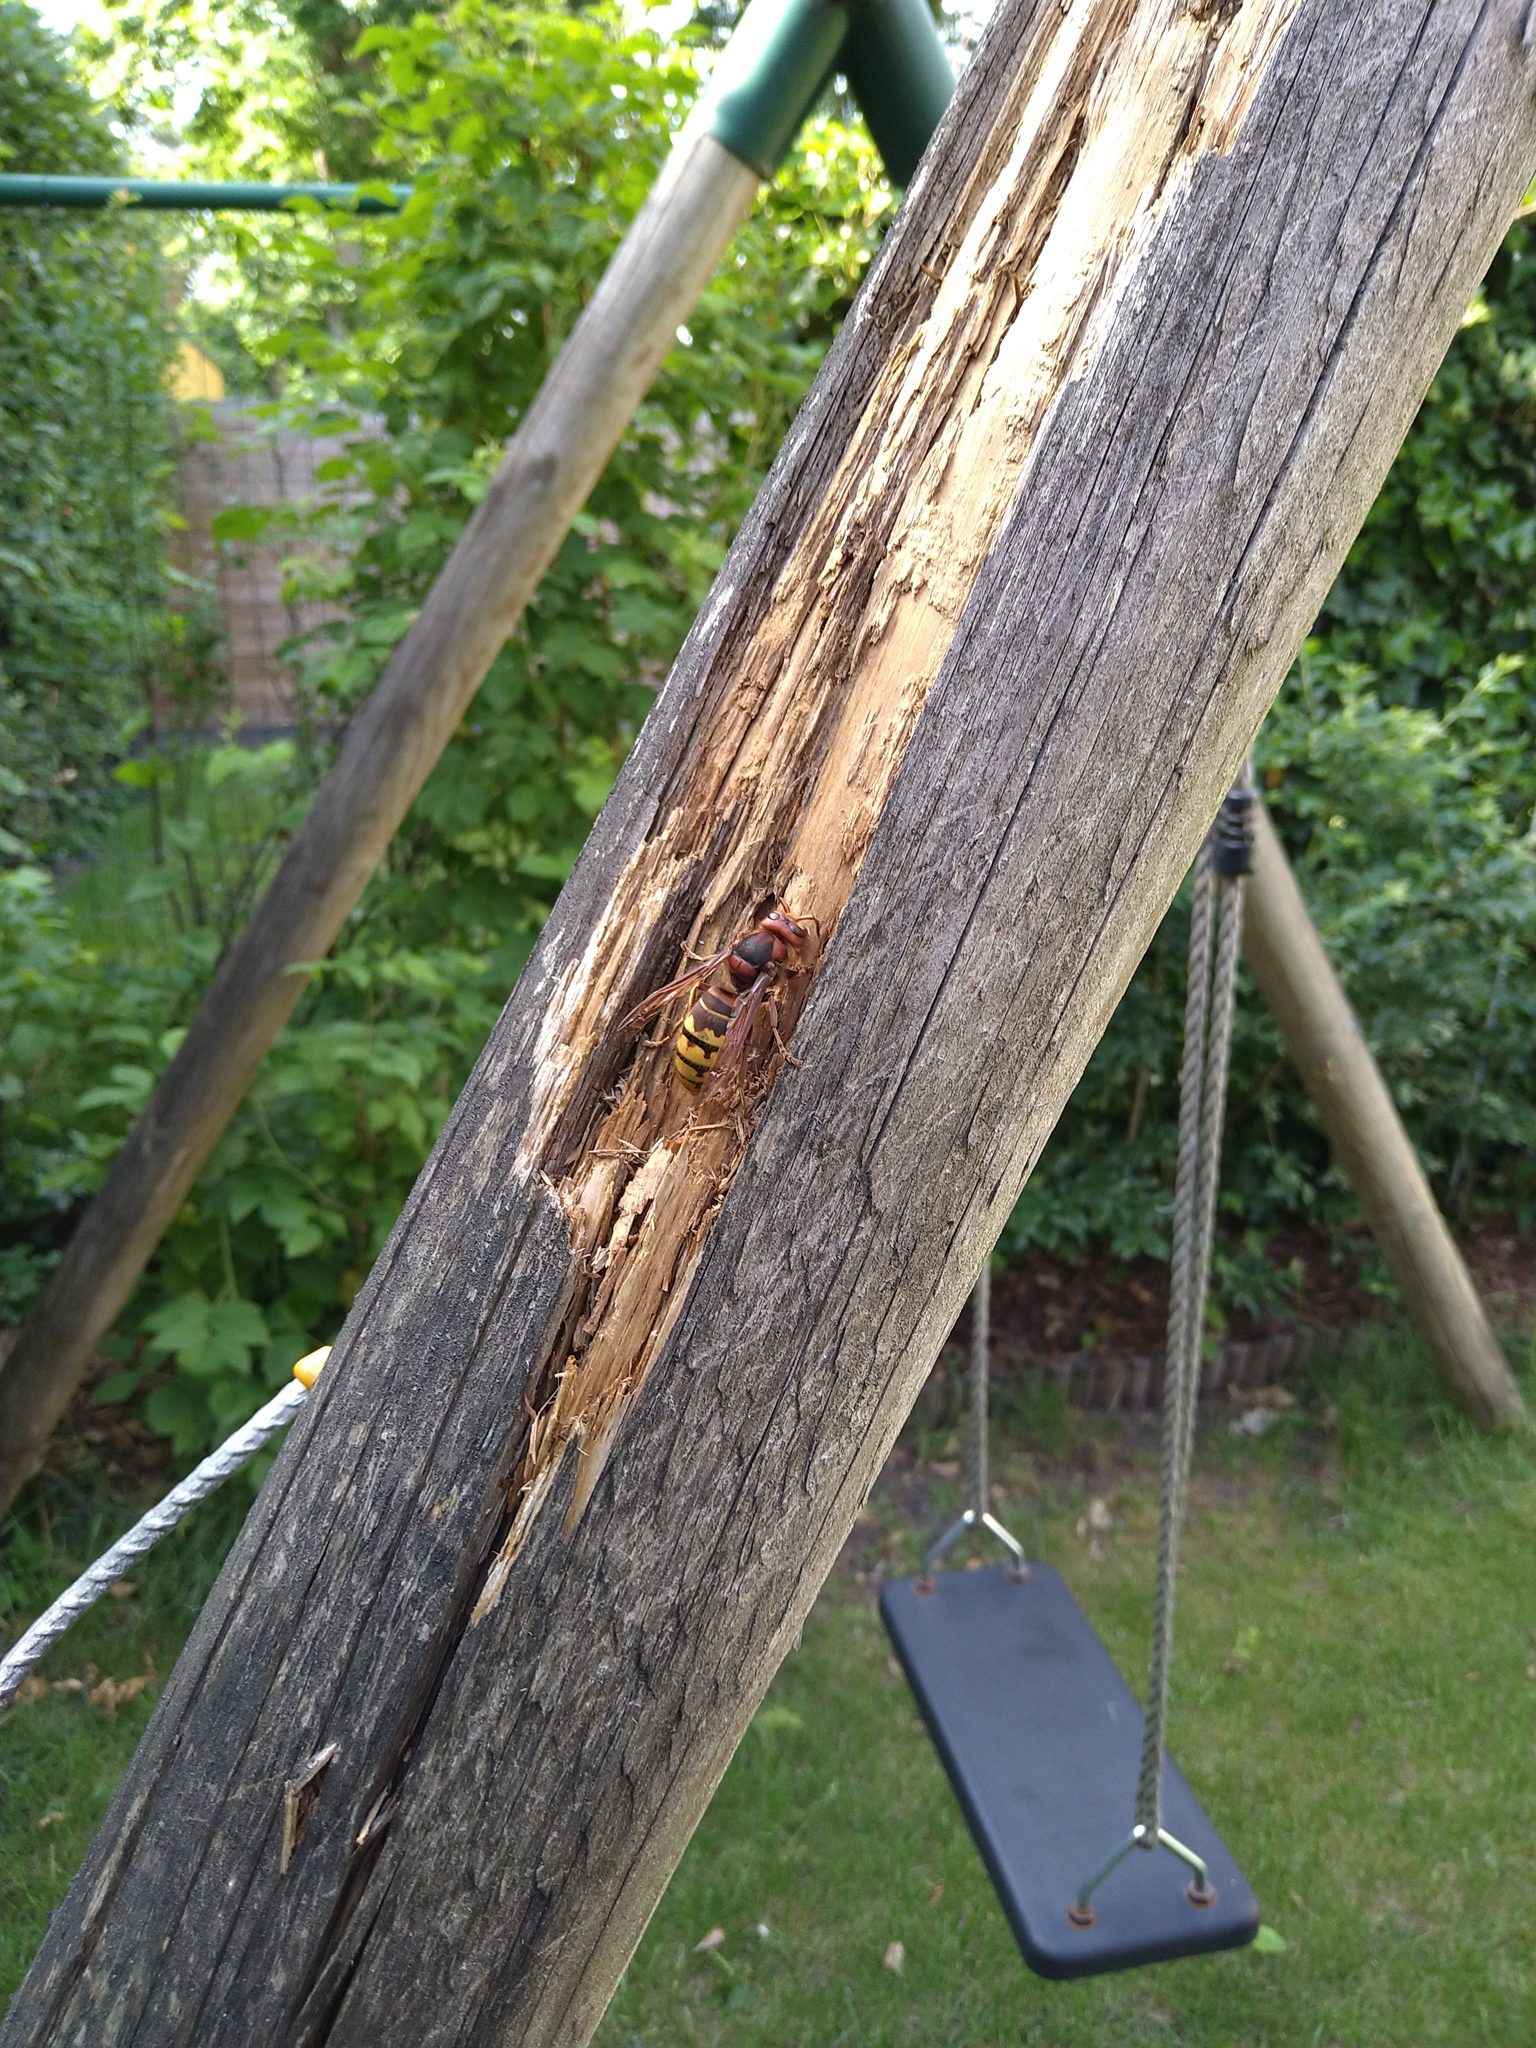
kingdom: Animalia
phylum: Arthropoda
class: Insecta
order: Hymenoptera
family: Vespidae
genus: Vespa
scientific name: Vespa crabro
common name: Hornet
